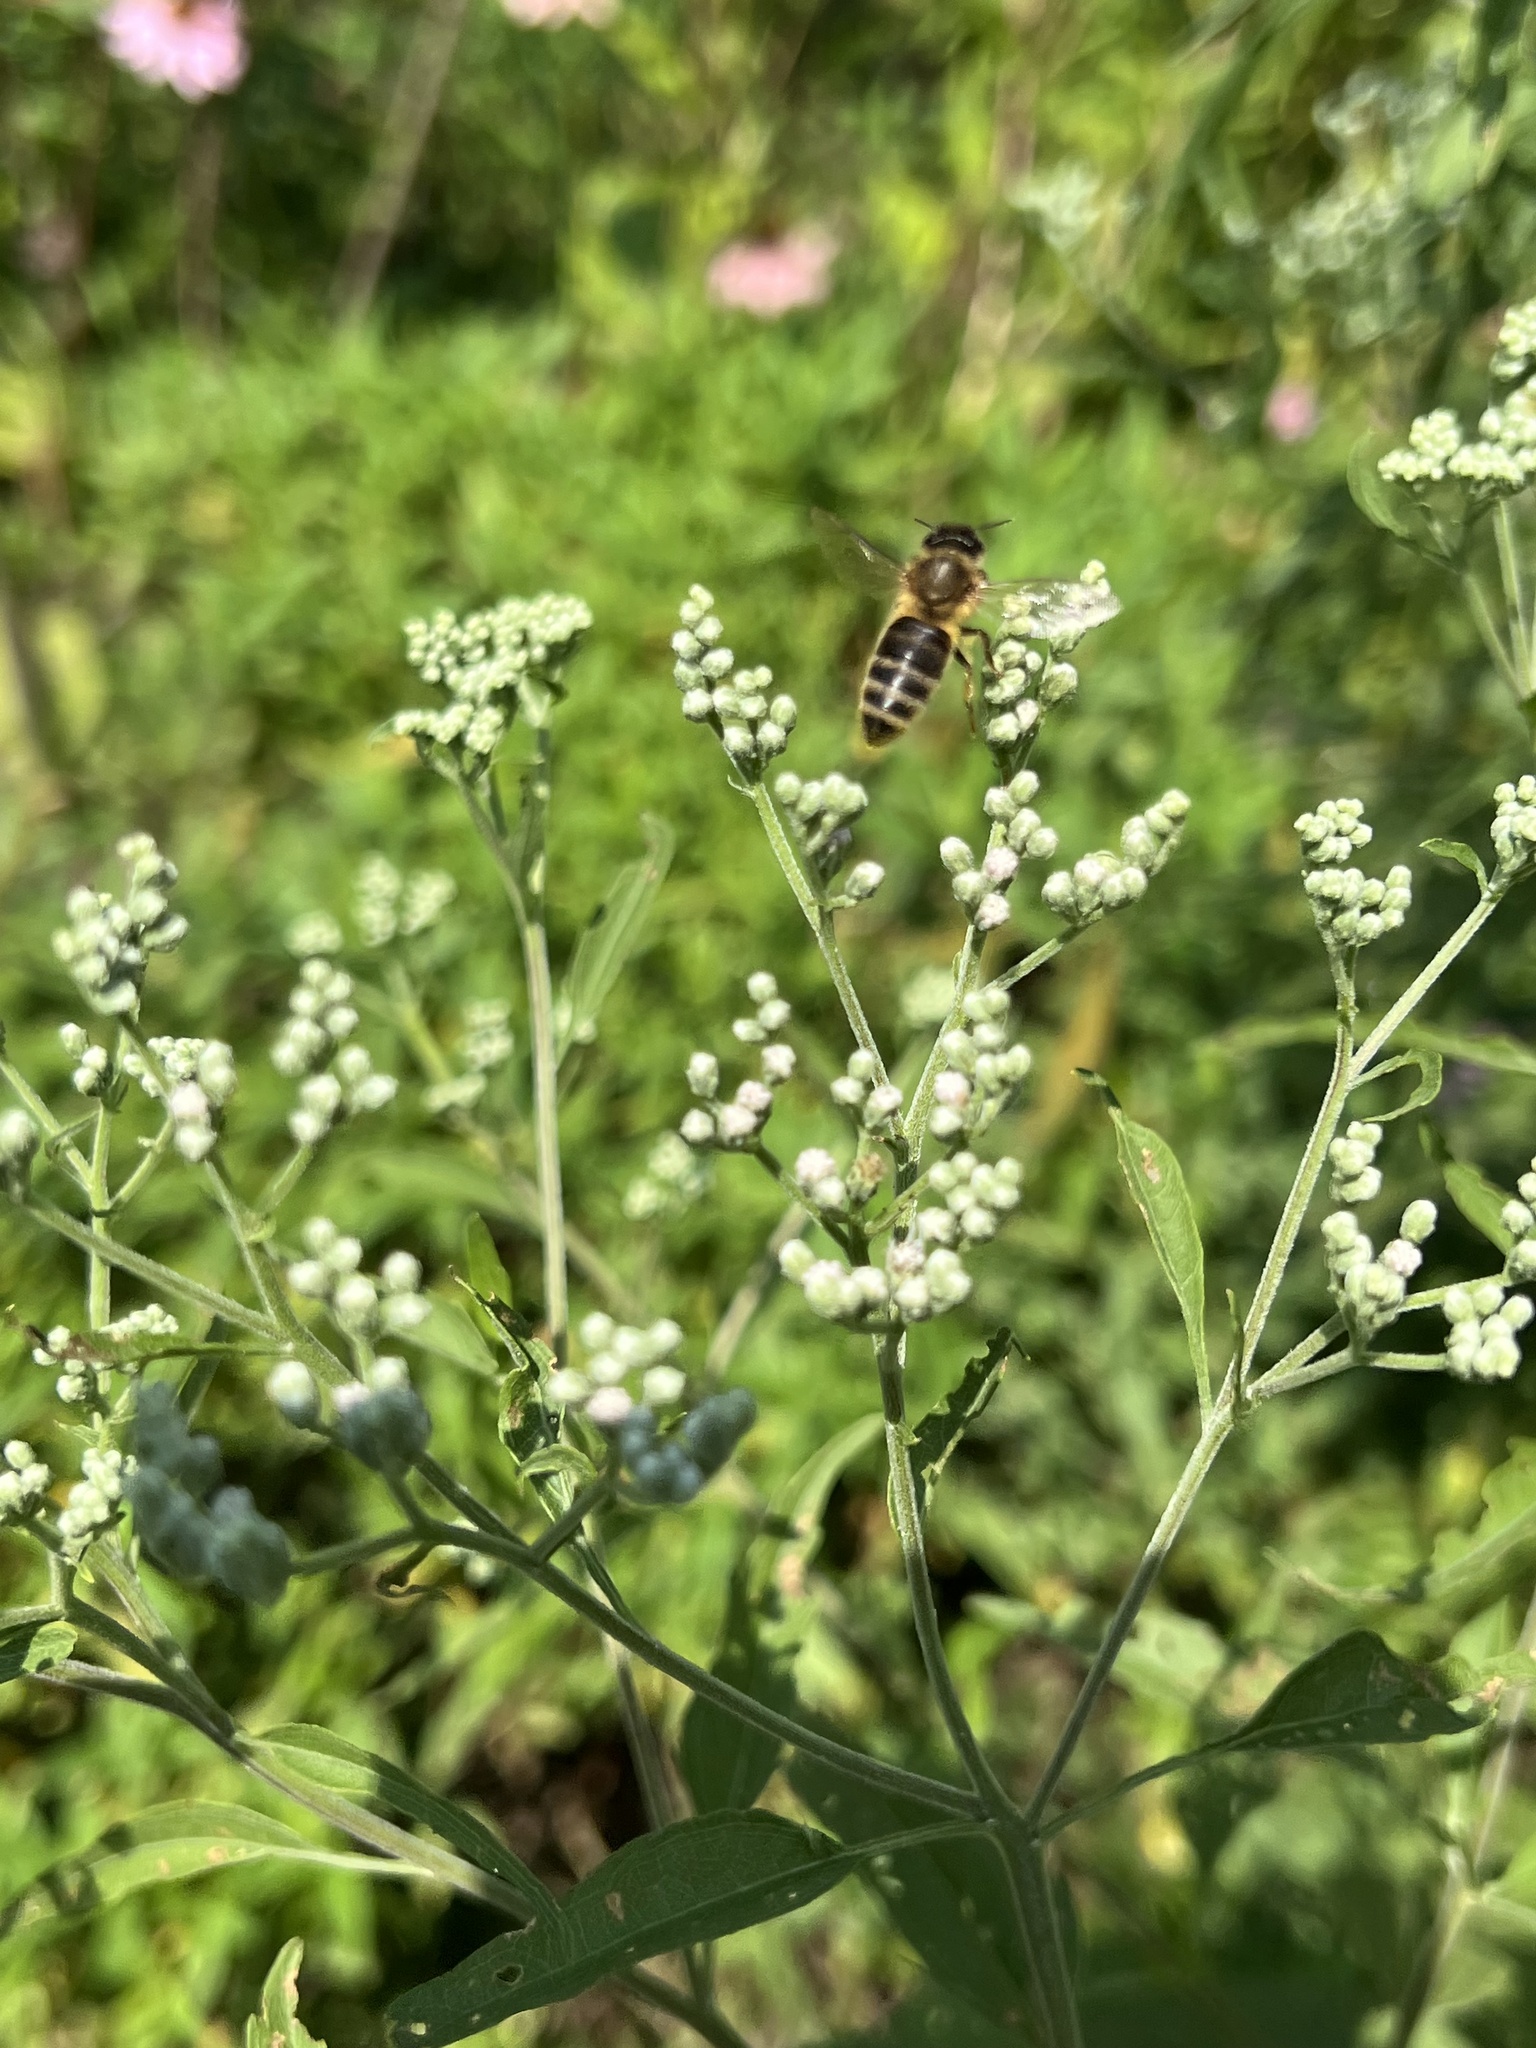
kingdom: Animalia
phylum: Arthropoda
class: Insecta
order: Hymenoptera
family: Apidae
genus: Apis
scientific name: Apis mellifera
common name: Honey bee
